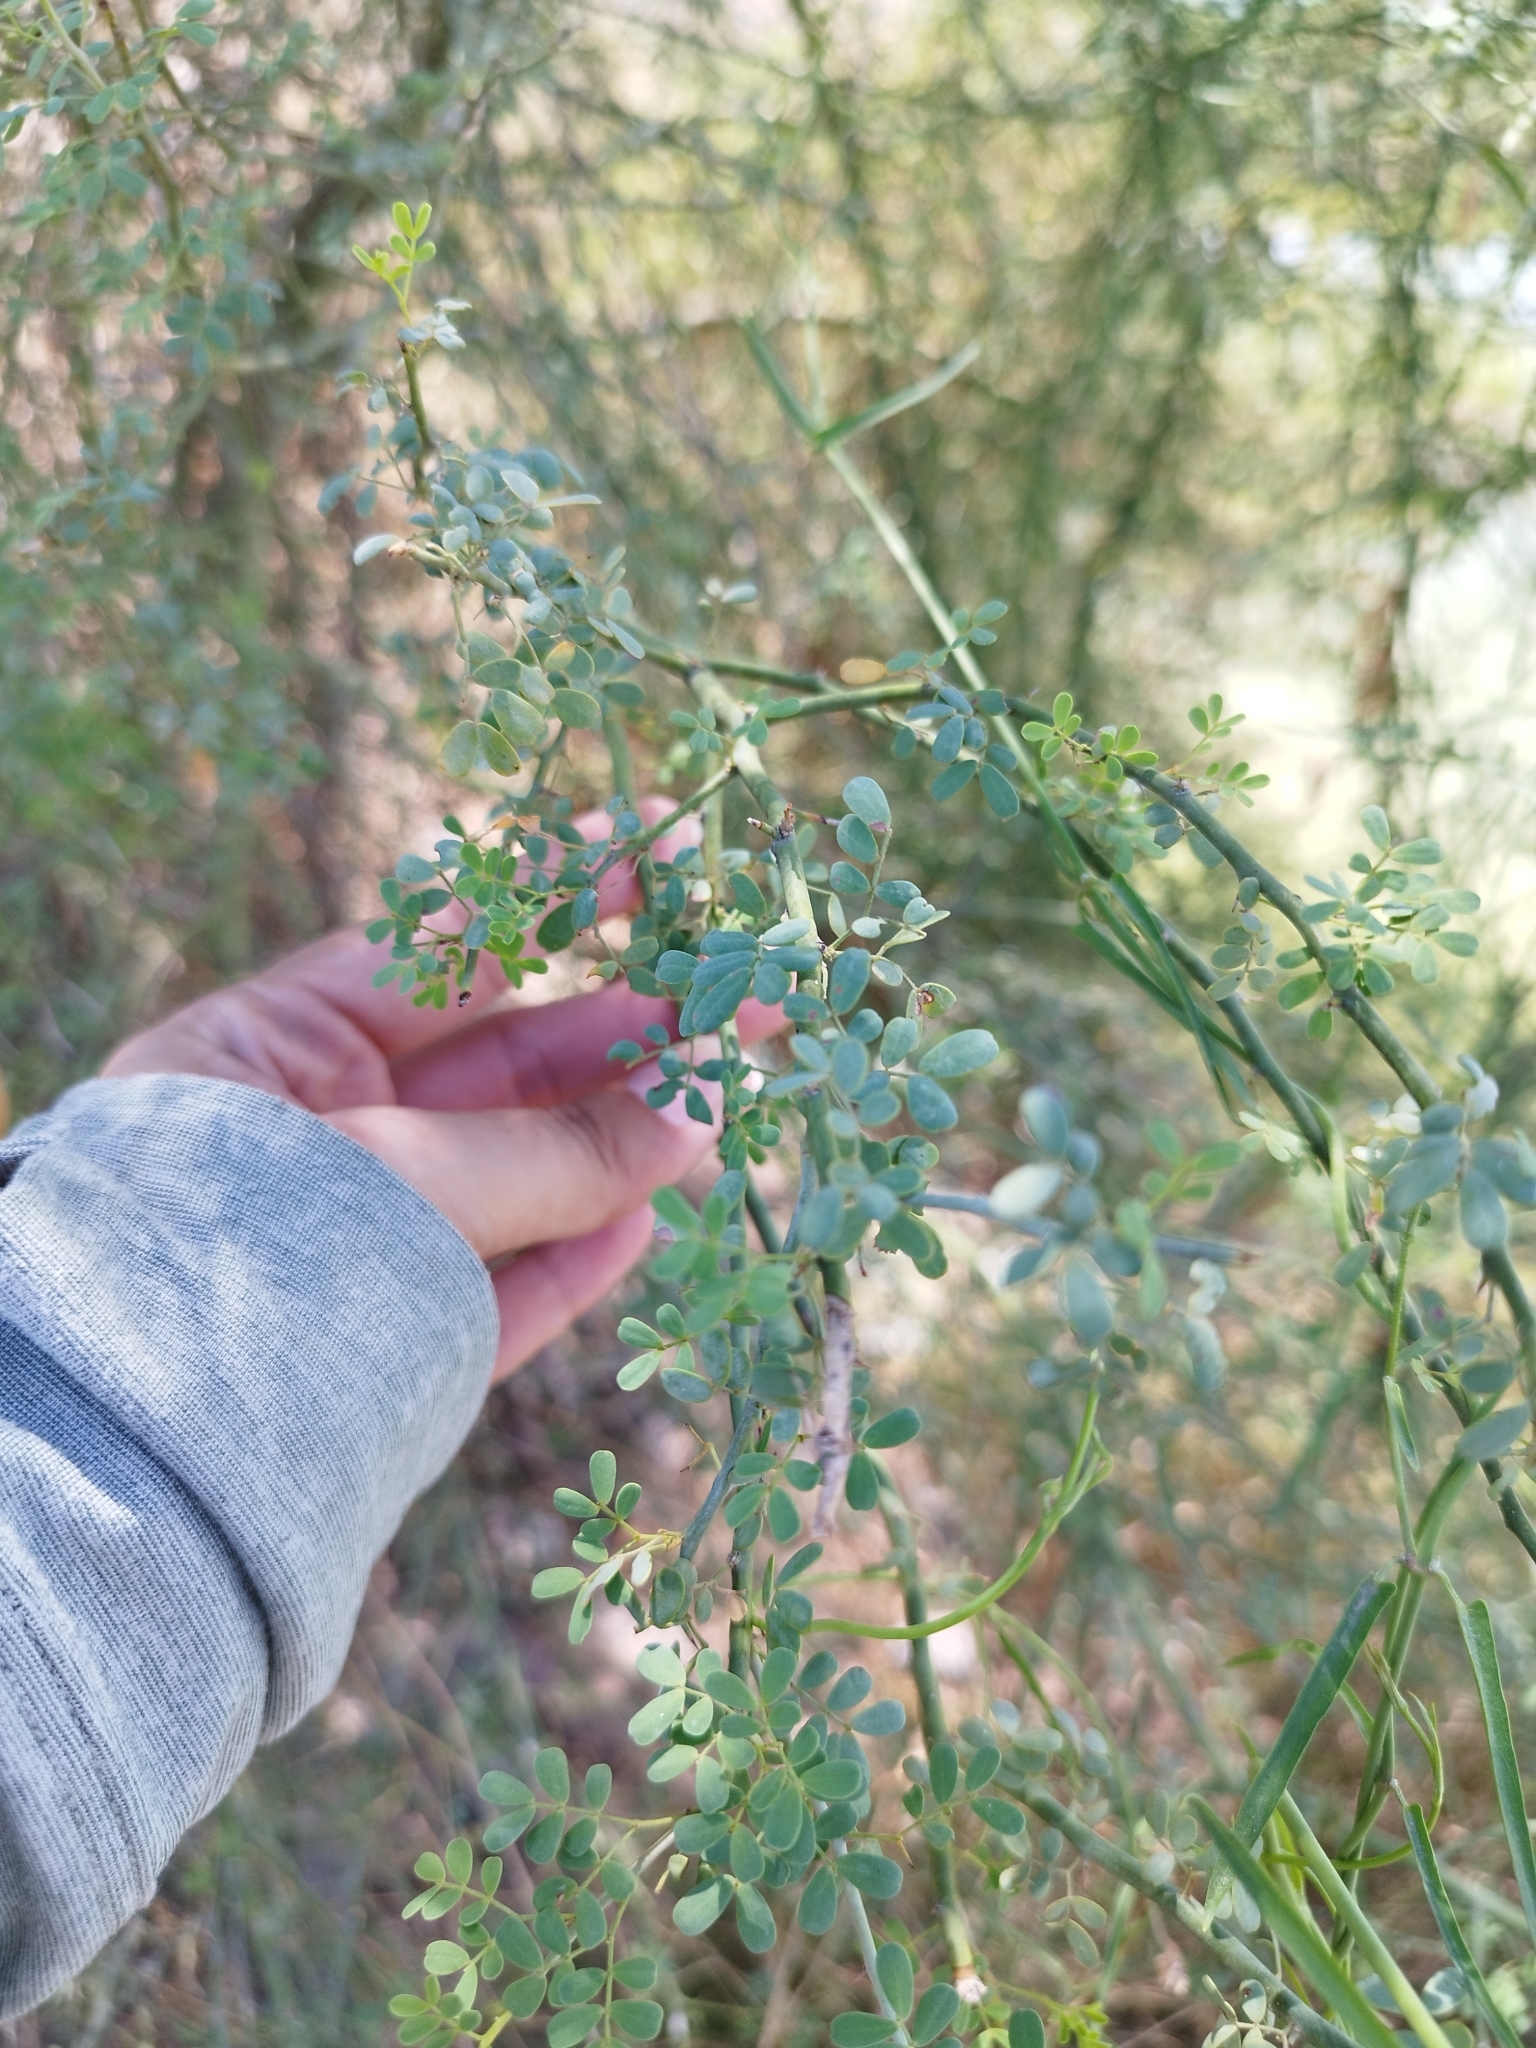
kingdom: Plantae
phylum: Tracheophyta
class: Magnoliopsida
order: Fabales
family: Fabaceae
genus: Parkinsonia
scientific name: Parkinsonia florida
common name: Blue paloverde
